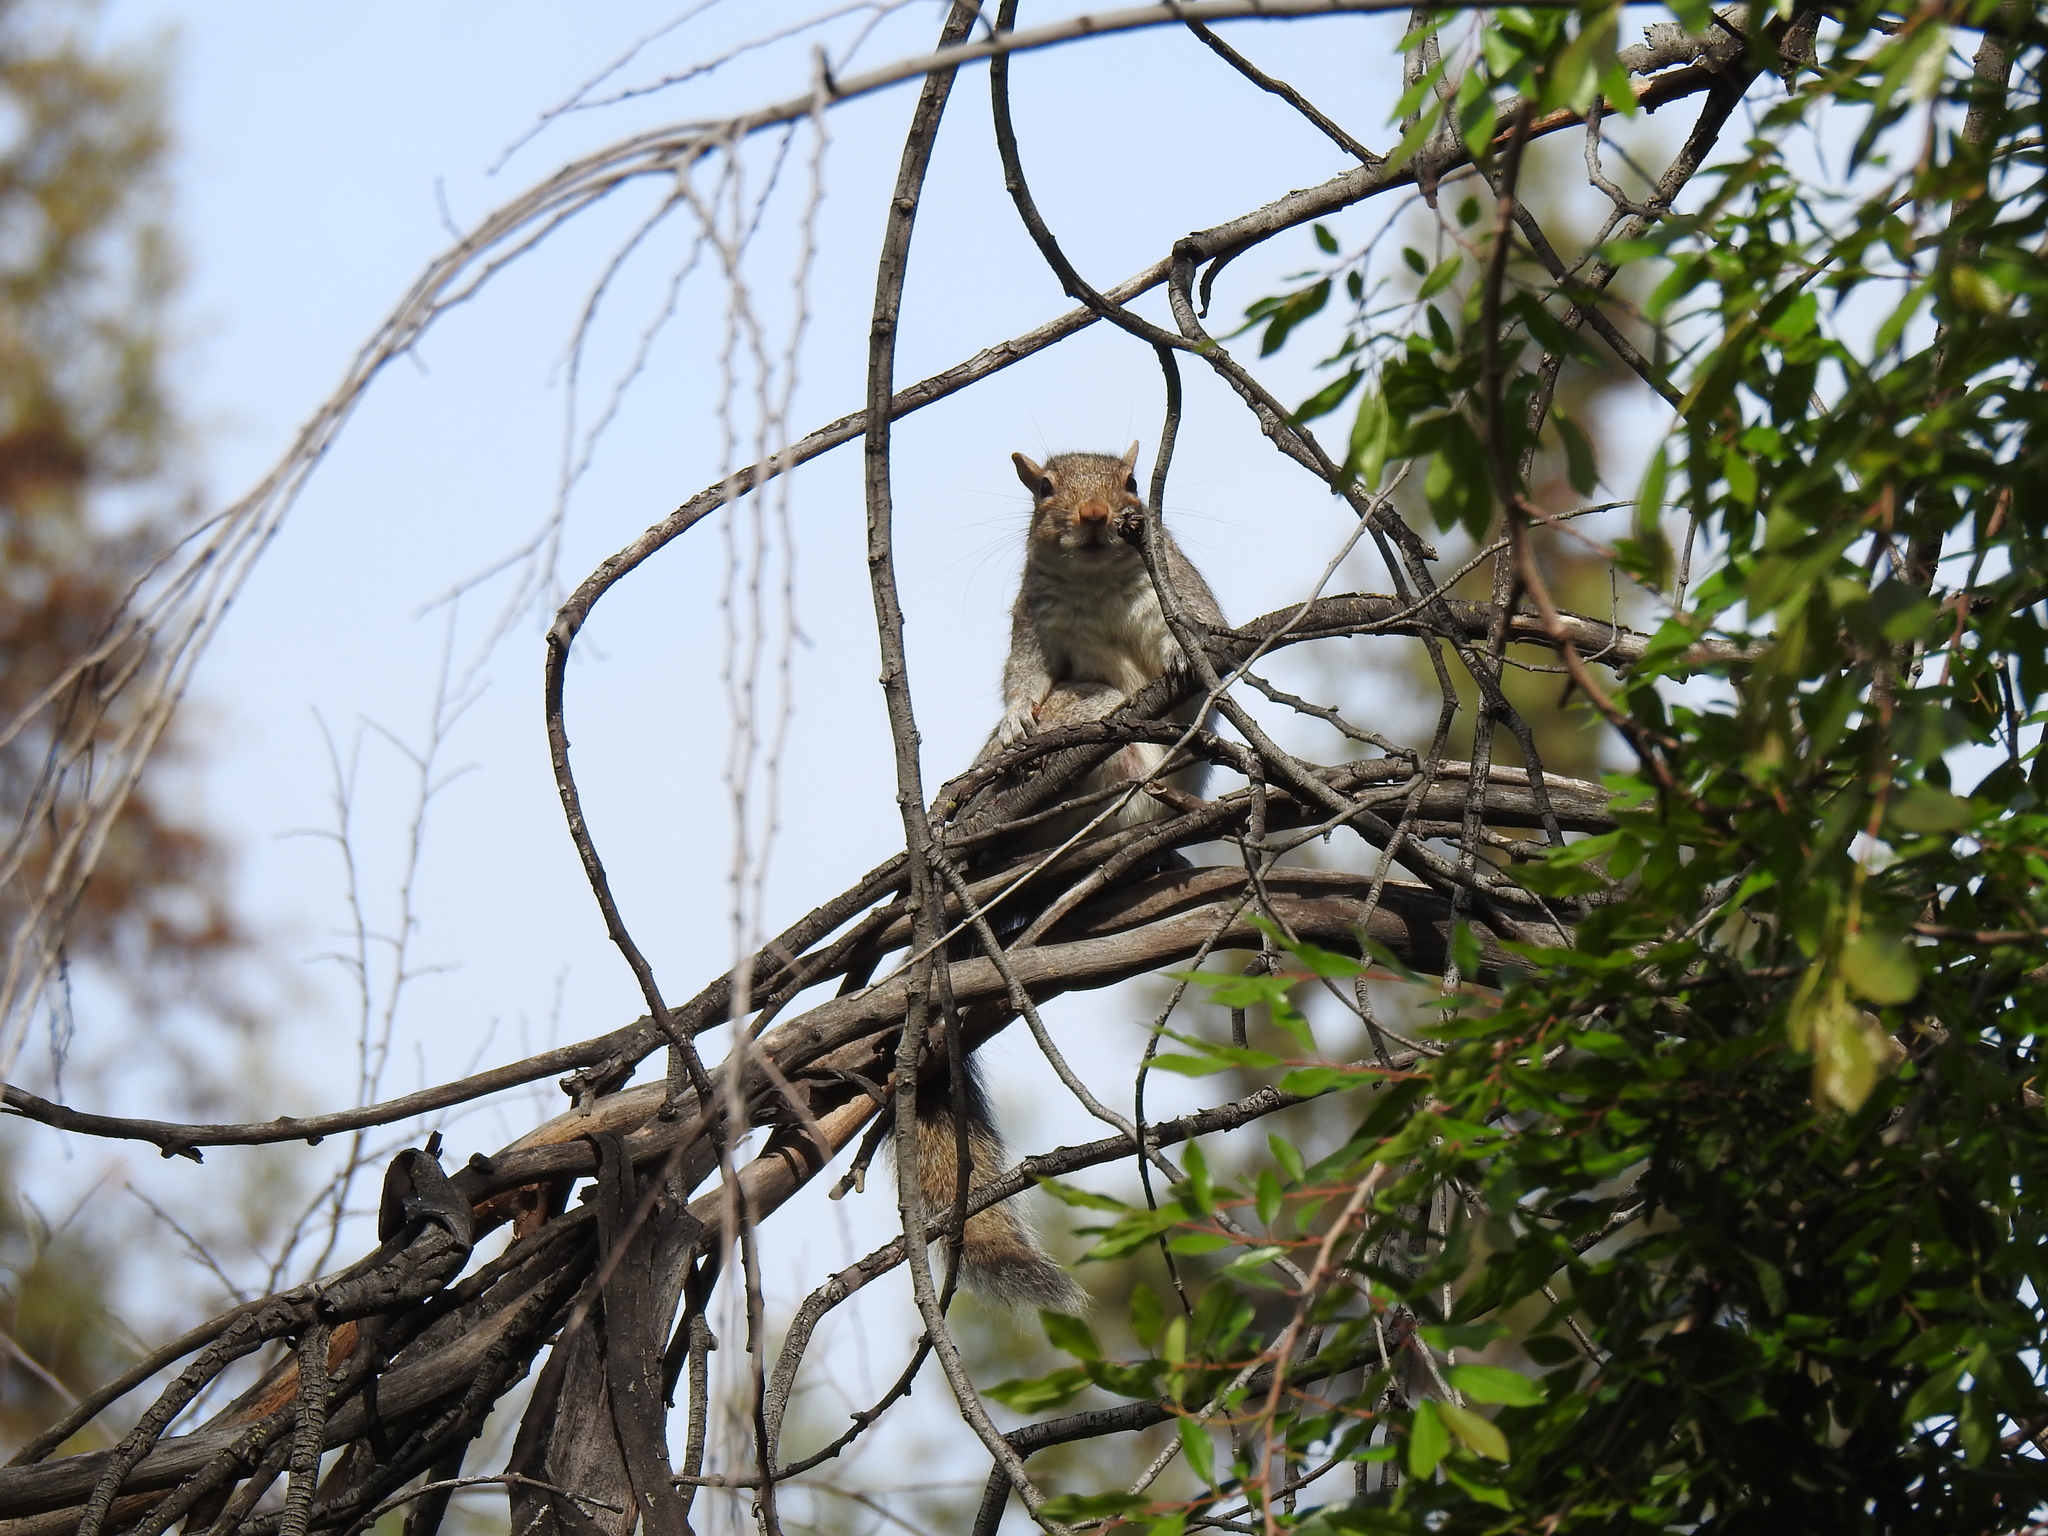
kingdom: Animalia
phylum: Chordata
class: Mammalia
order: Rodentia
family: Sciuridae
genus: Sciurus
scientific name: Sciurus carolinensis
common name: Eastern gray squirrel
